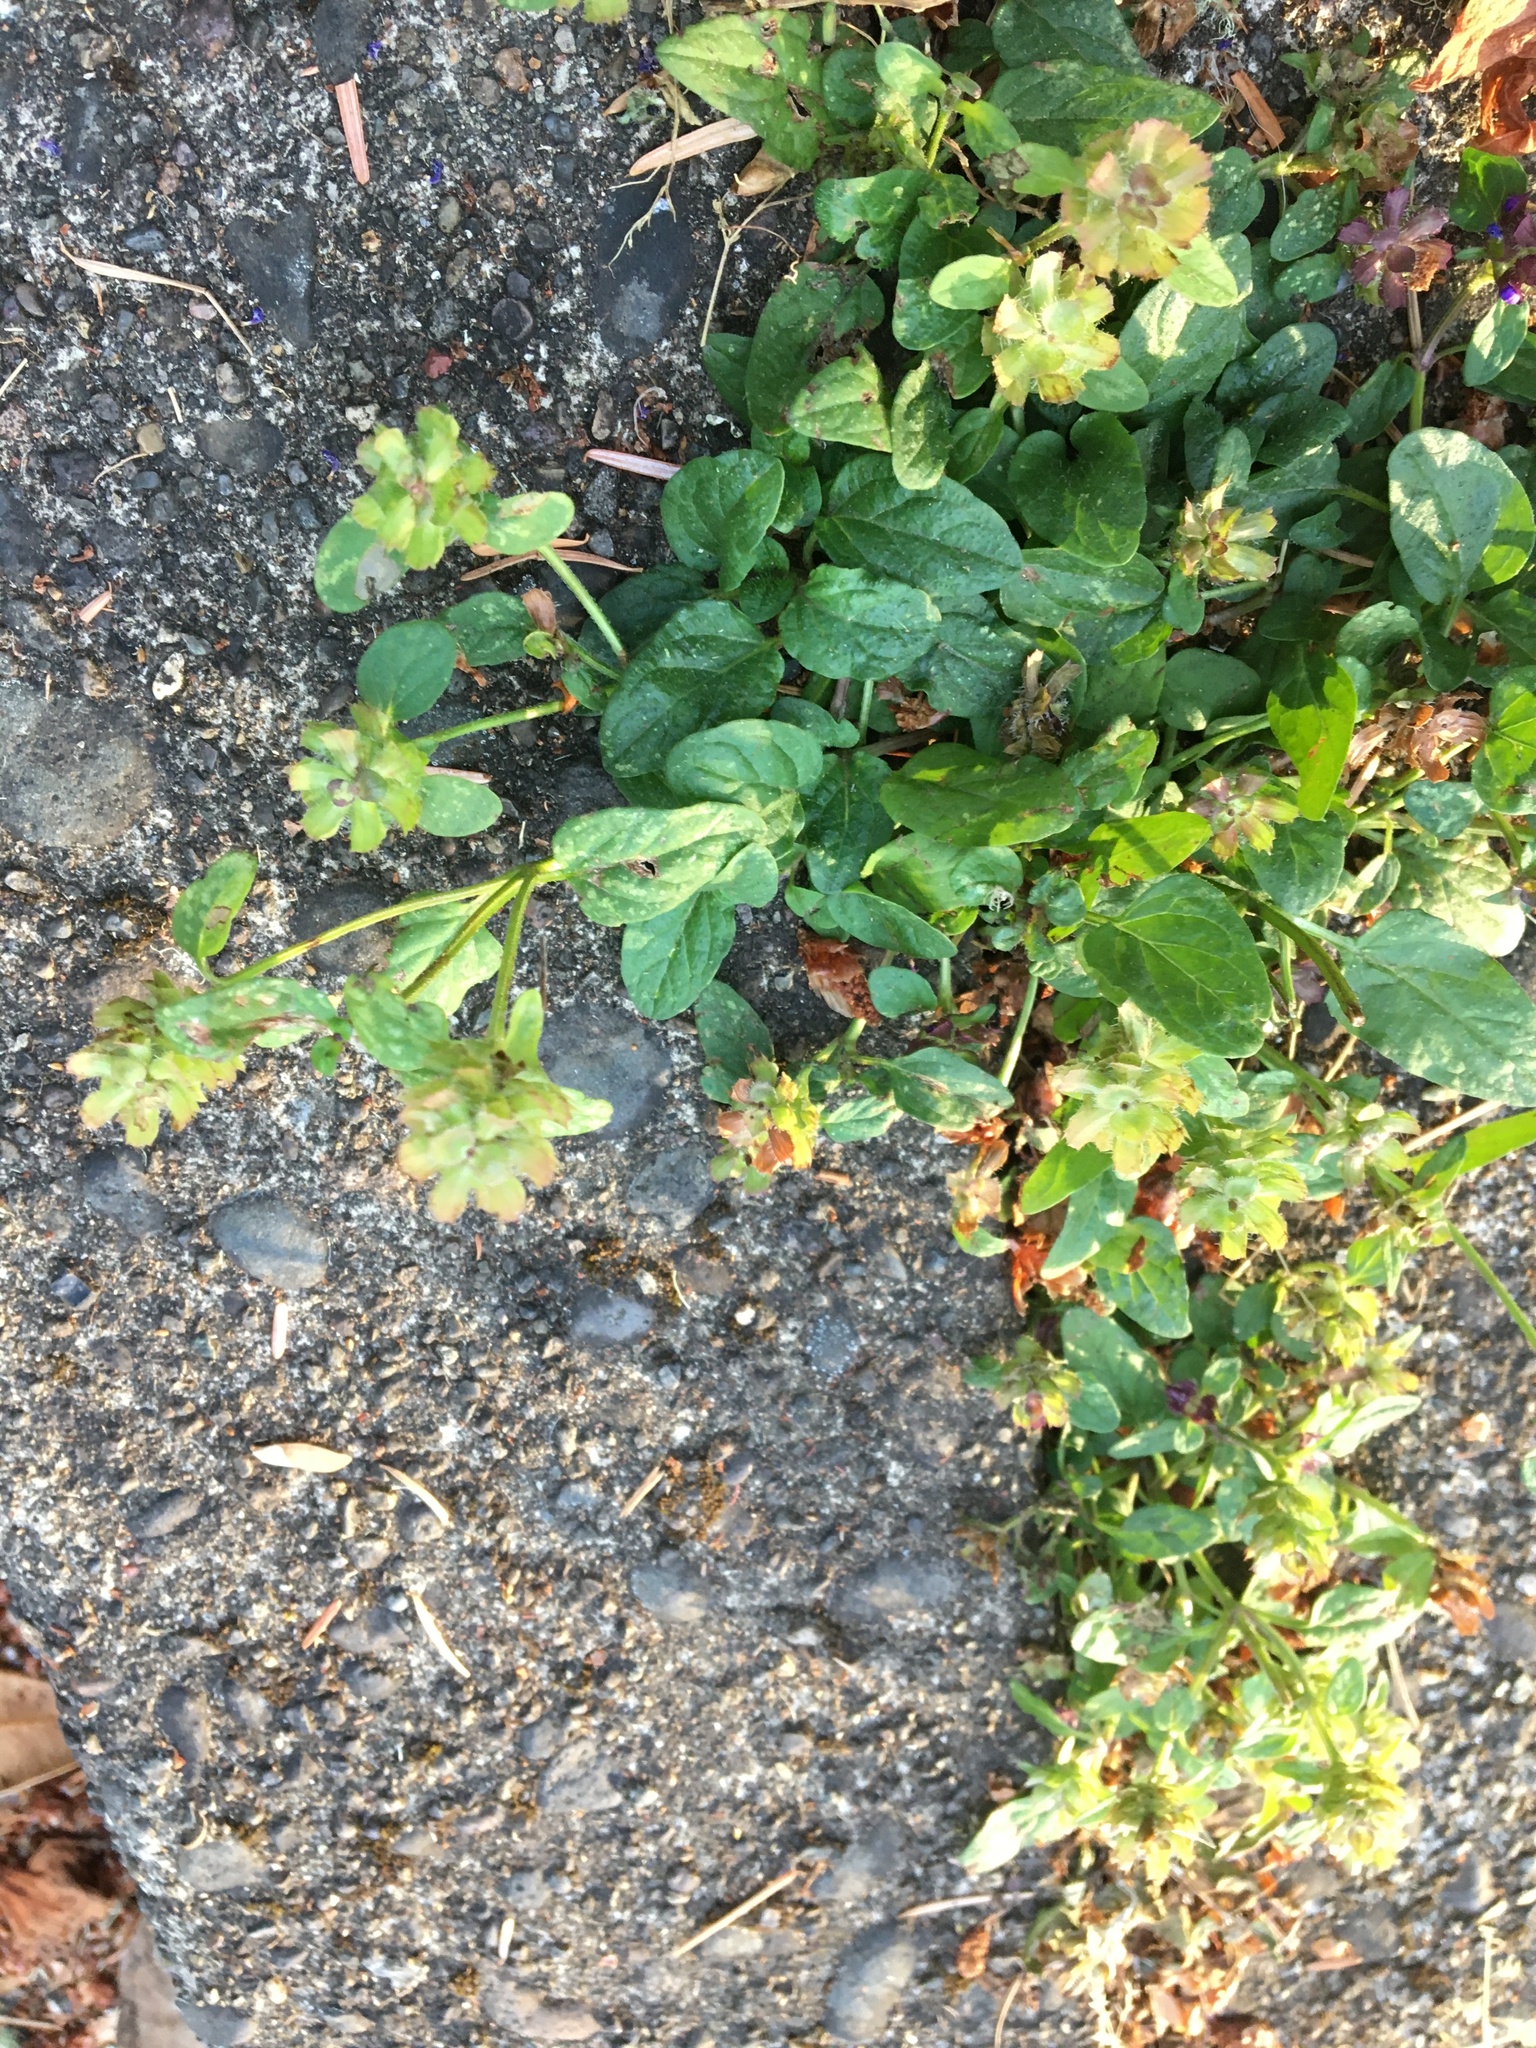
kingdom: Plantae
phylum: Tracheophyta
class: Magnoliopsida
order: Lamiales
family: Lamiaceae
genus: Prunella
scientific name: Prunella vulgaris
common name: Heal-all
